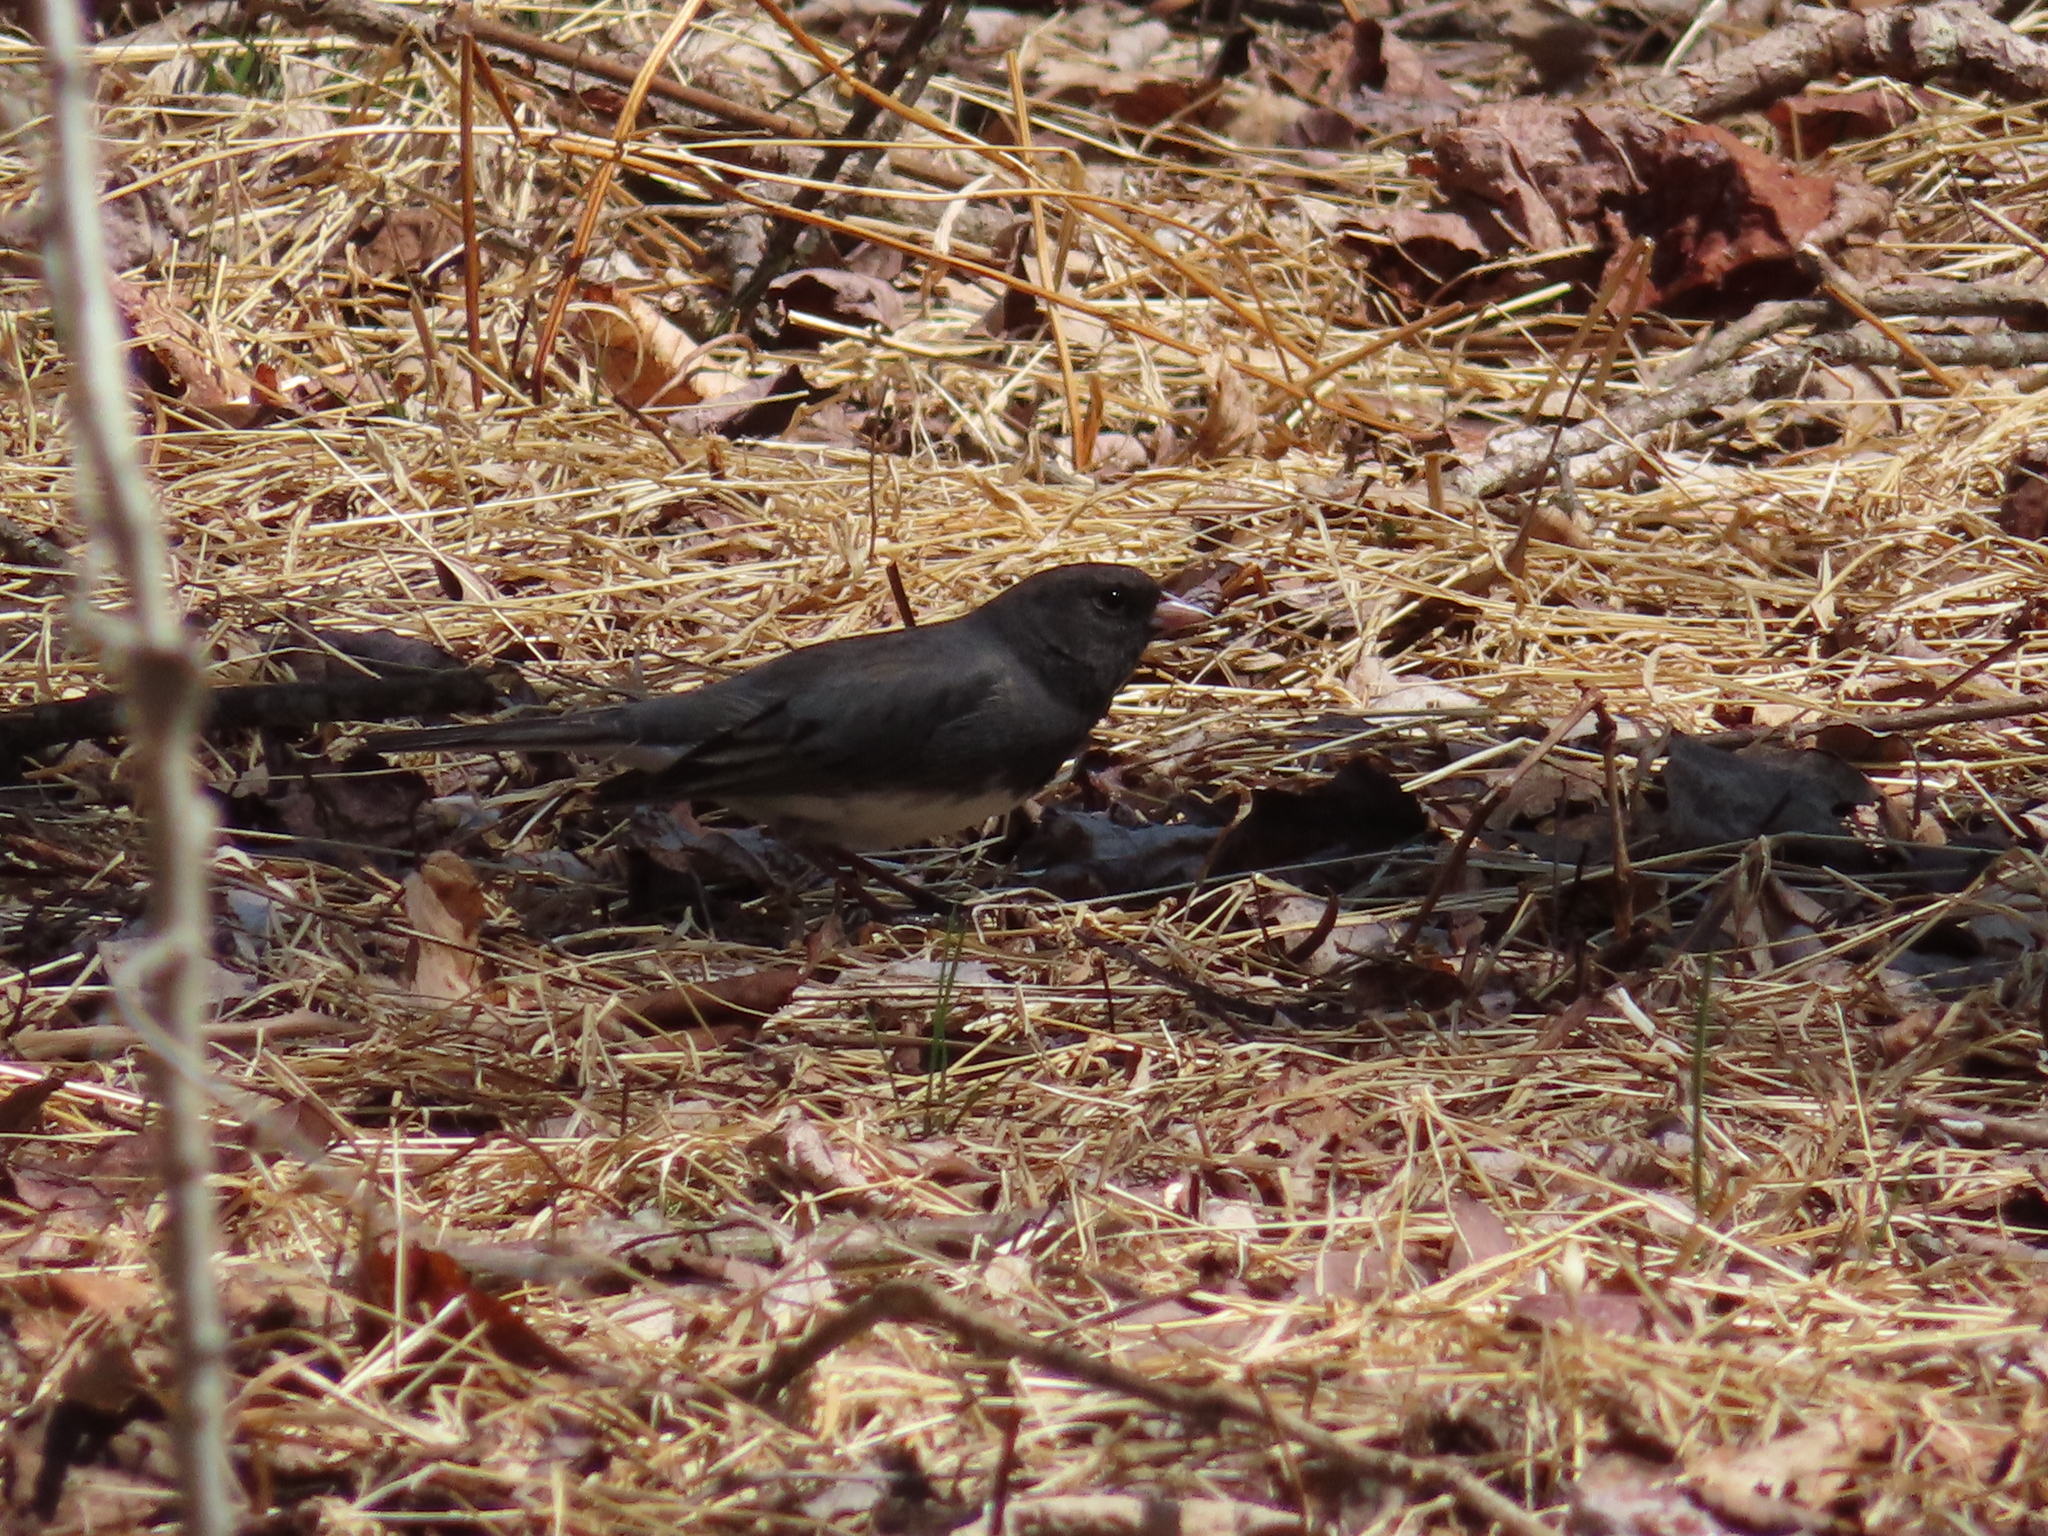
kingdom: Animalia
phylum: Chordata
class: Aves
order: Passeriformes
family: Passerellidae
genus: Junco
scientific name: Junco hyemalis
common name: Dark-eyed junco
